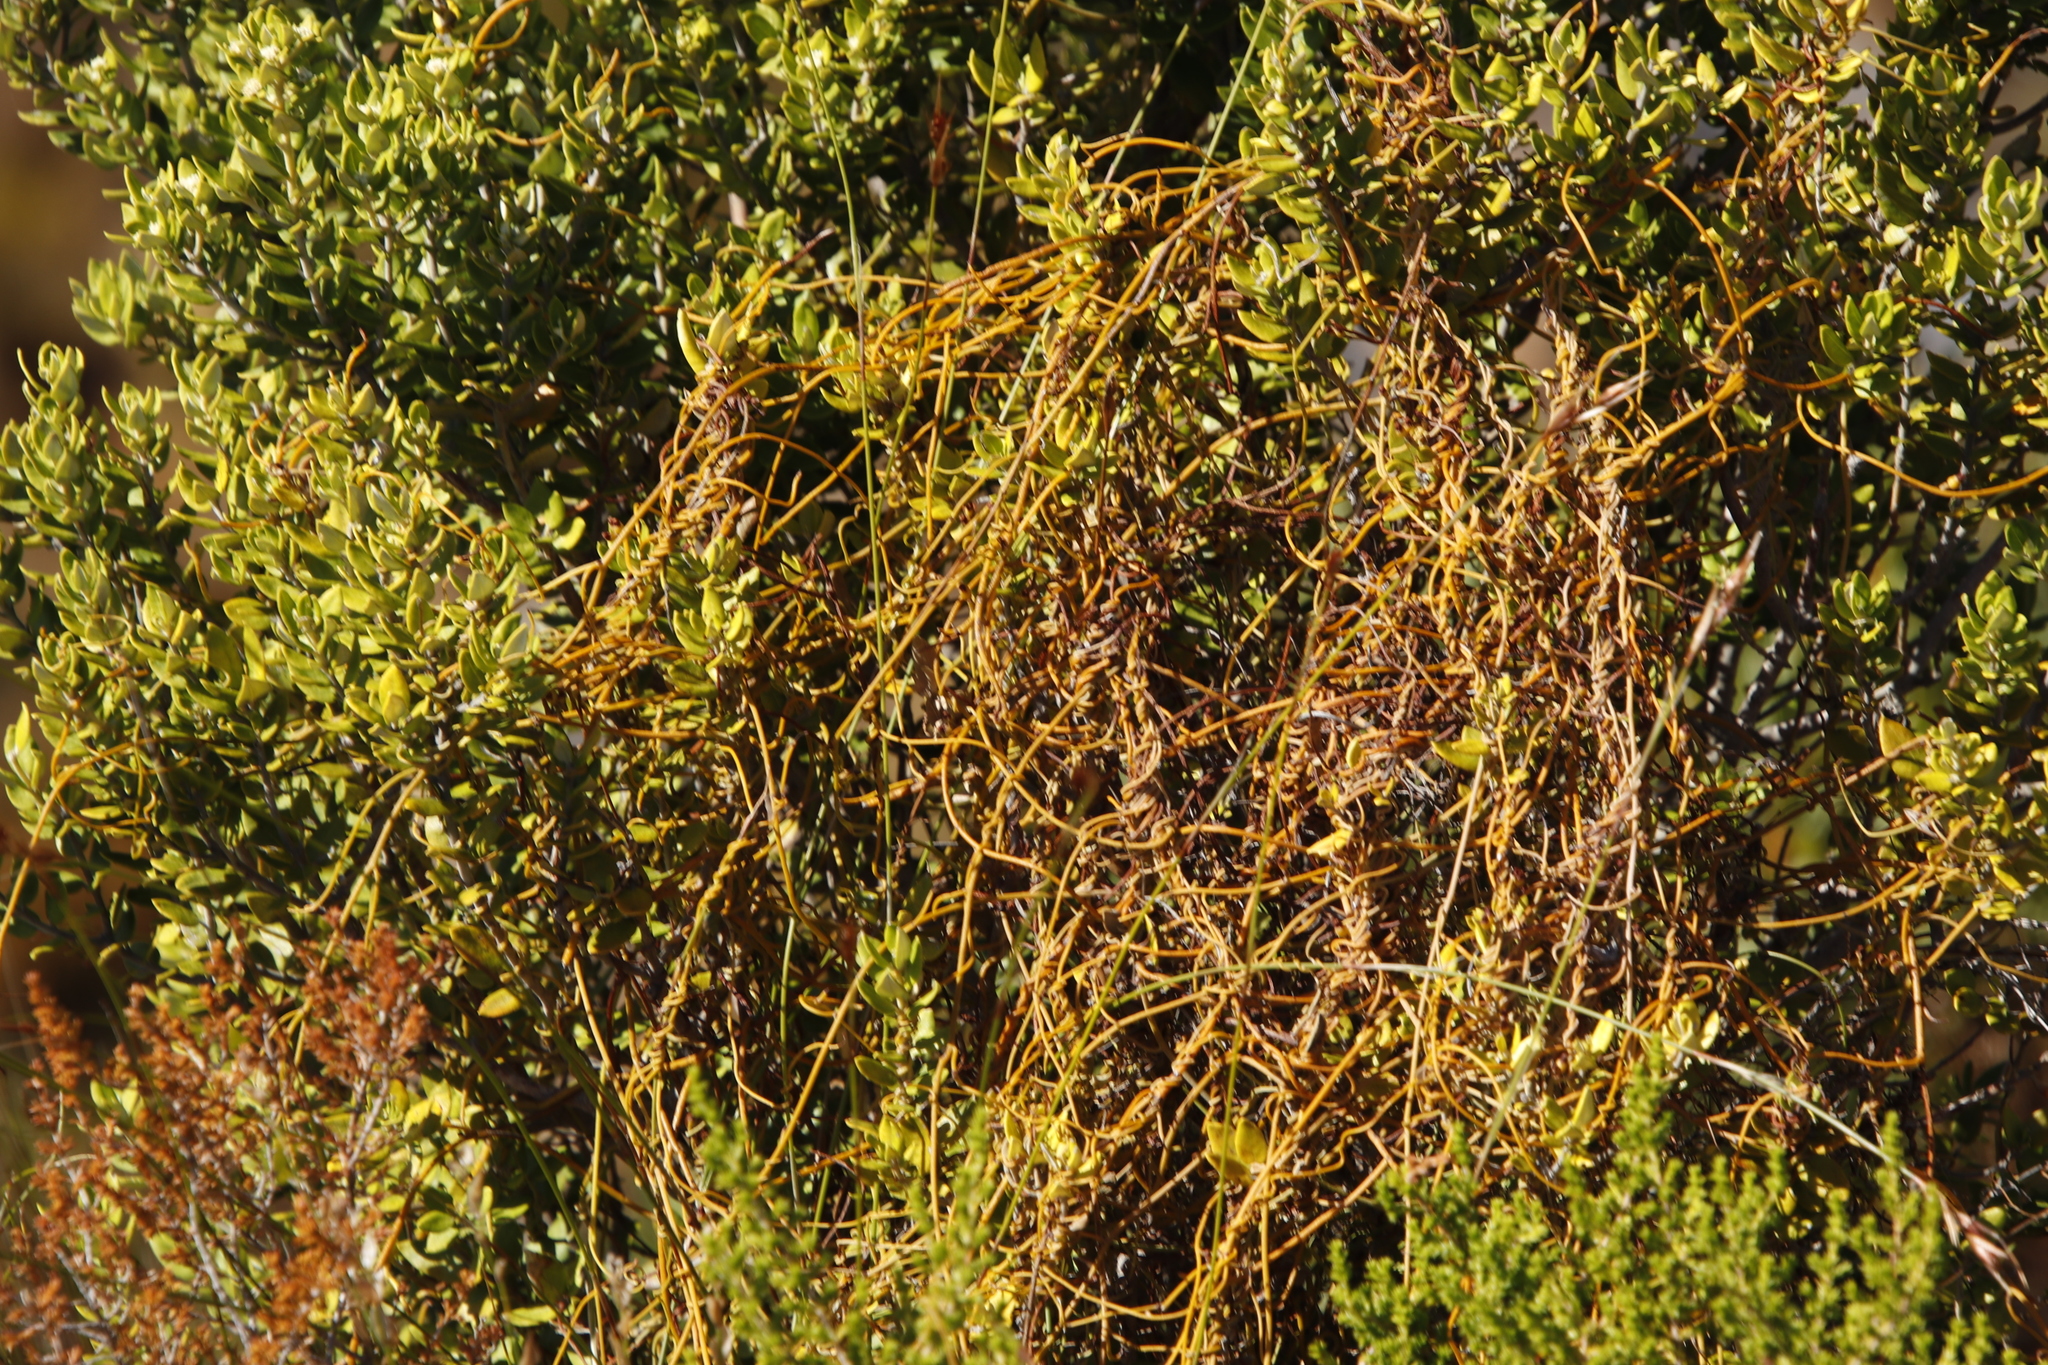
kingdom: Plantae
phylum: Tracheophyta
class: Magnoliopsida
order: Laurales
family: Lauraceae
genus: Cassytha
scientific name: Cassytha ciliolata
